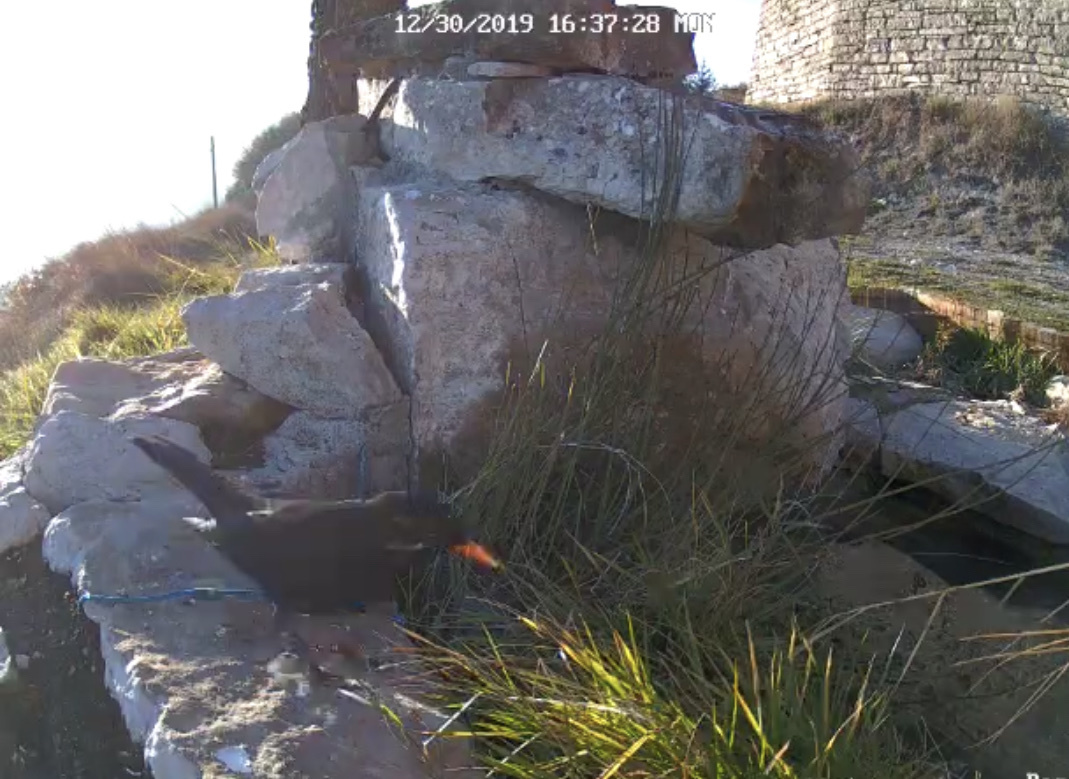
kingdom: Animalia
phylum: Chordata
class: Aves
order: Passeriformes
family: Turdidae
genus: Turdus
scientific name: Turdus merula
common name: Common blackbird
